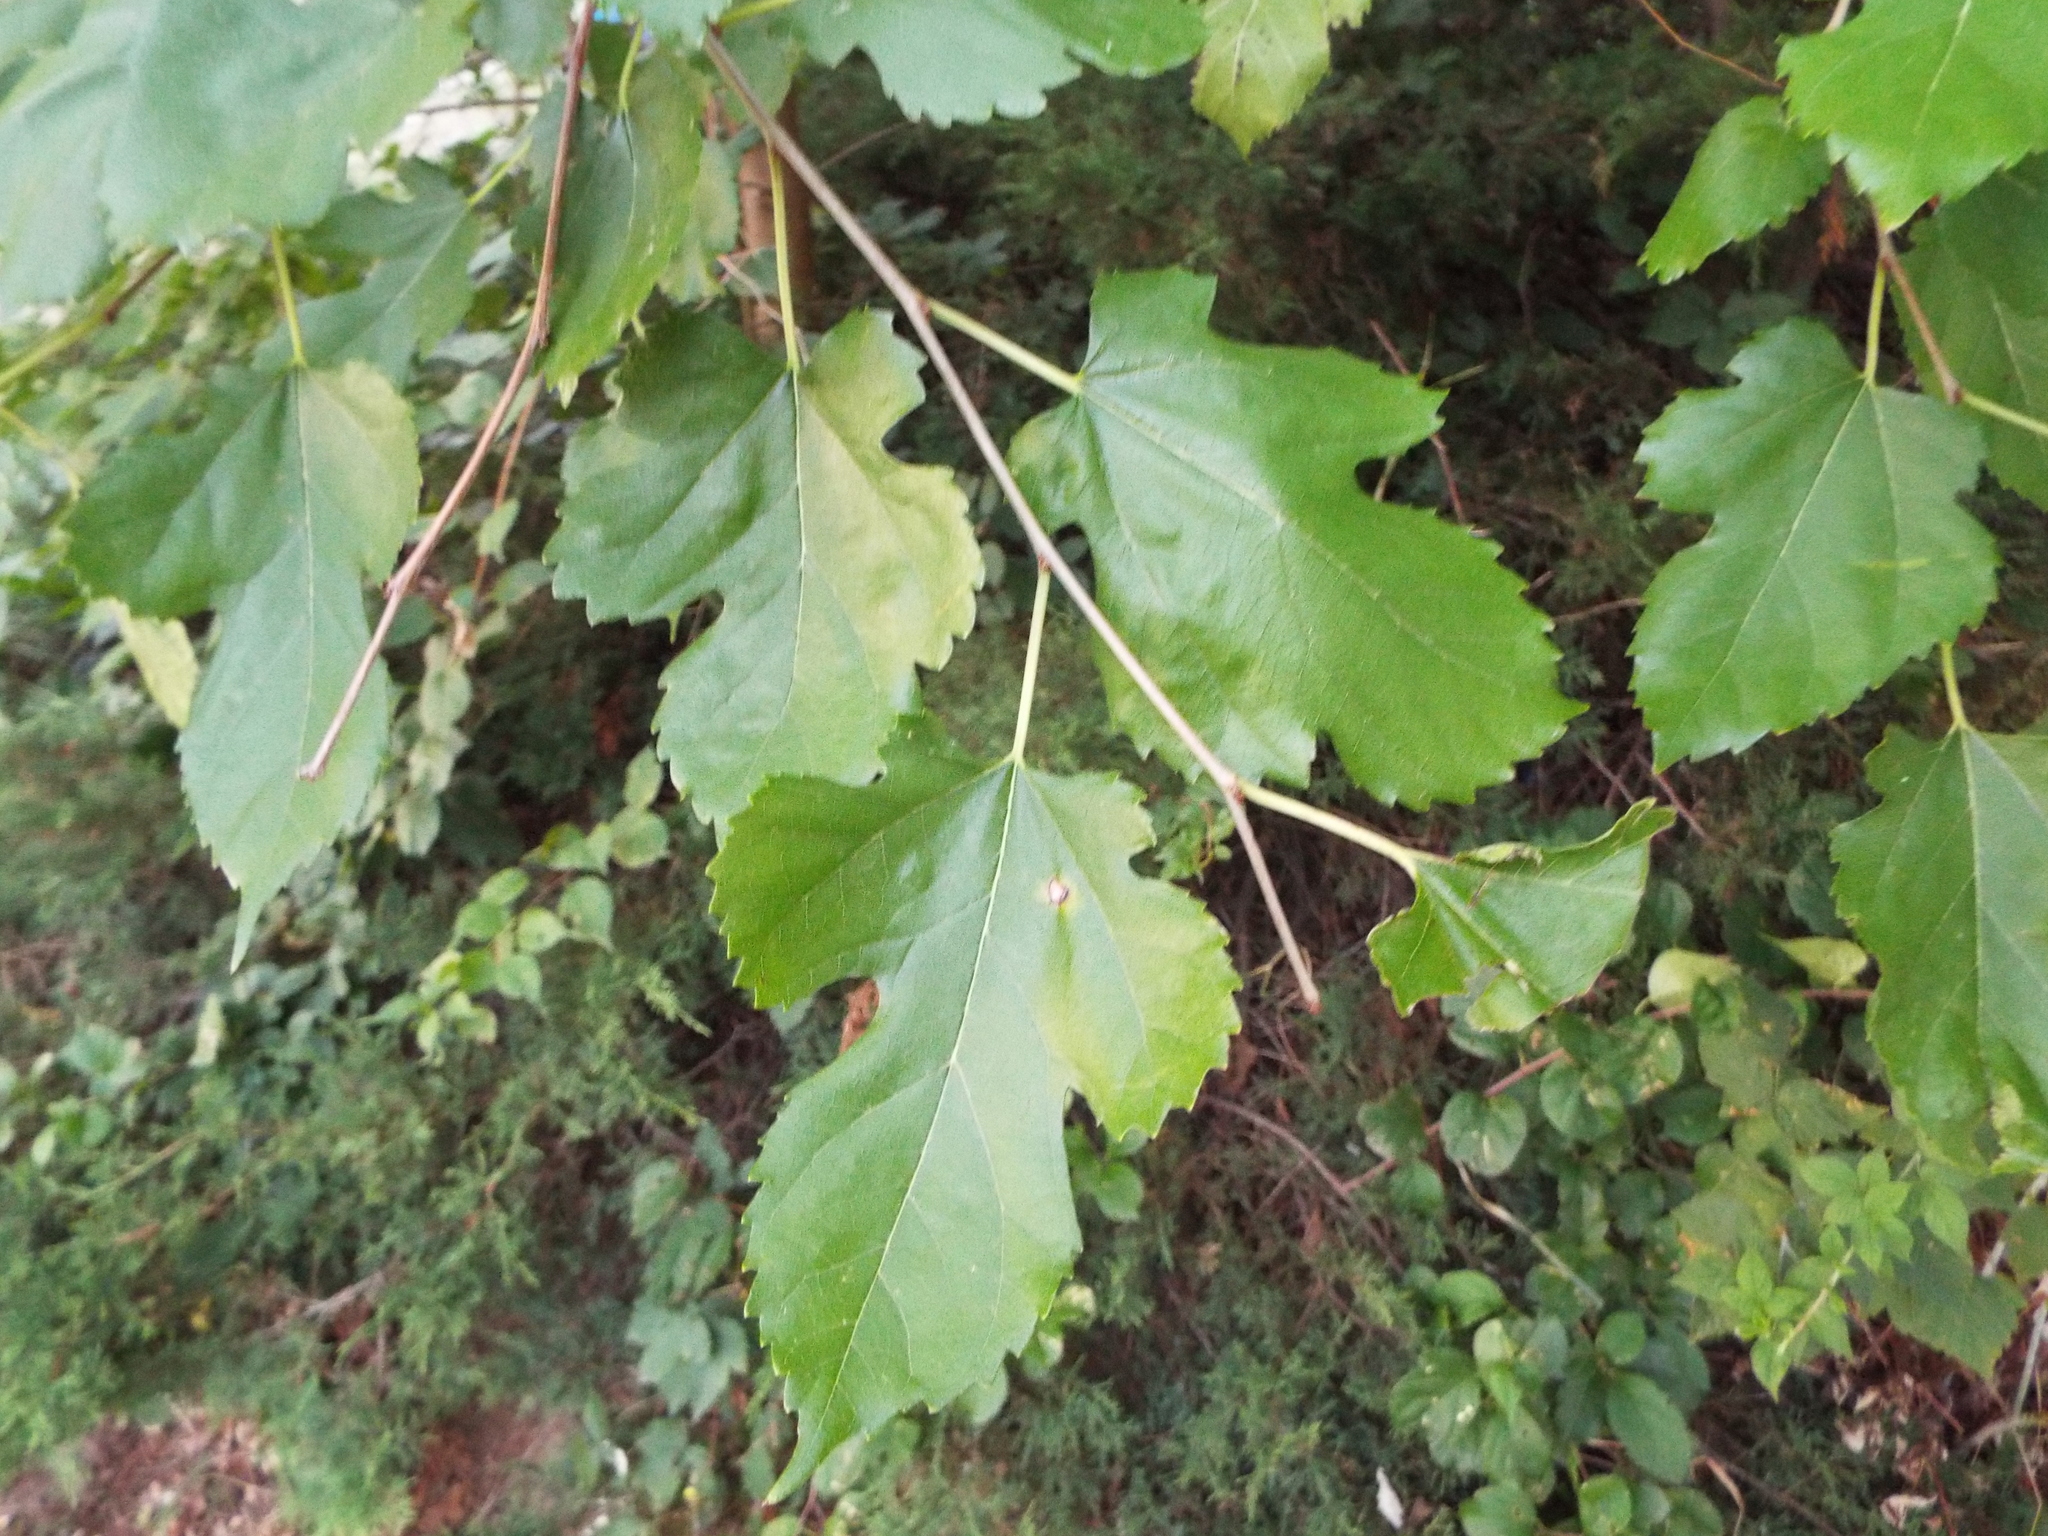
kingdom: Plantae
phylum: Tracheophyta
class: Magnoliopsida
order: Rosales
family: Moraceae
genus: Morus
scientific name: Morus alba
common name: White mulberry
